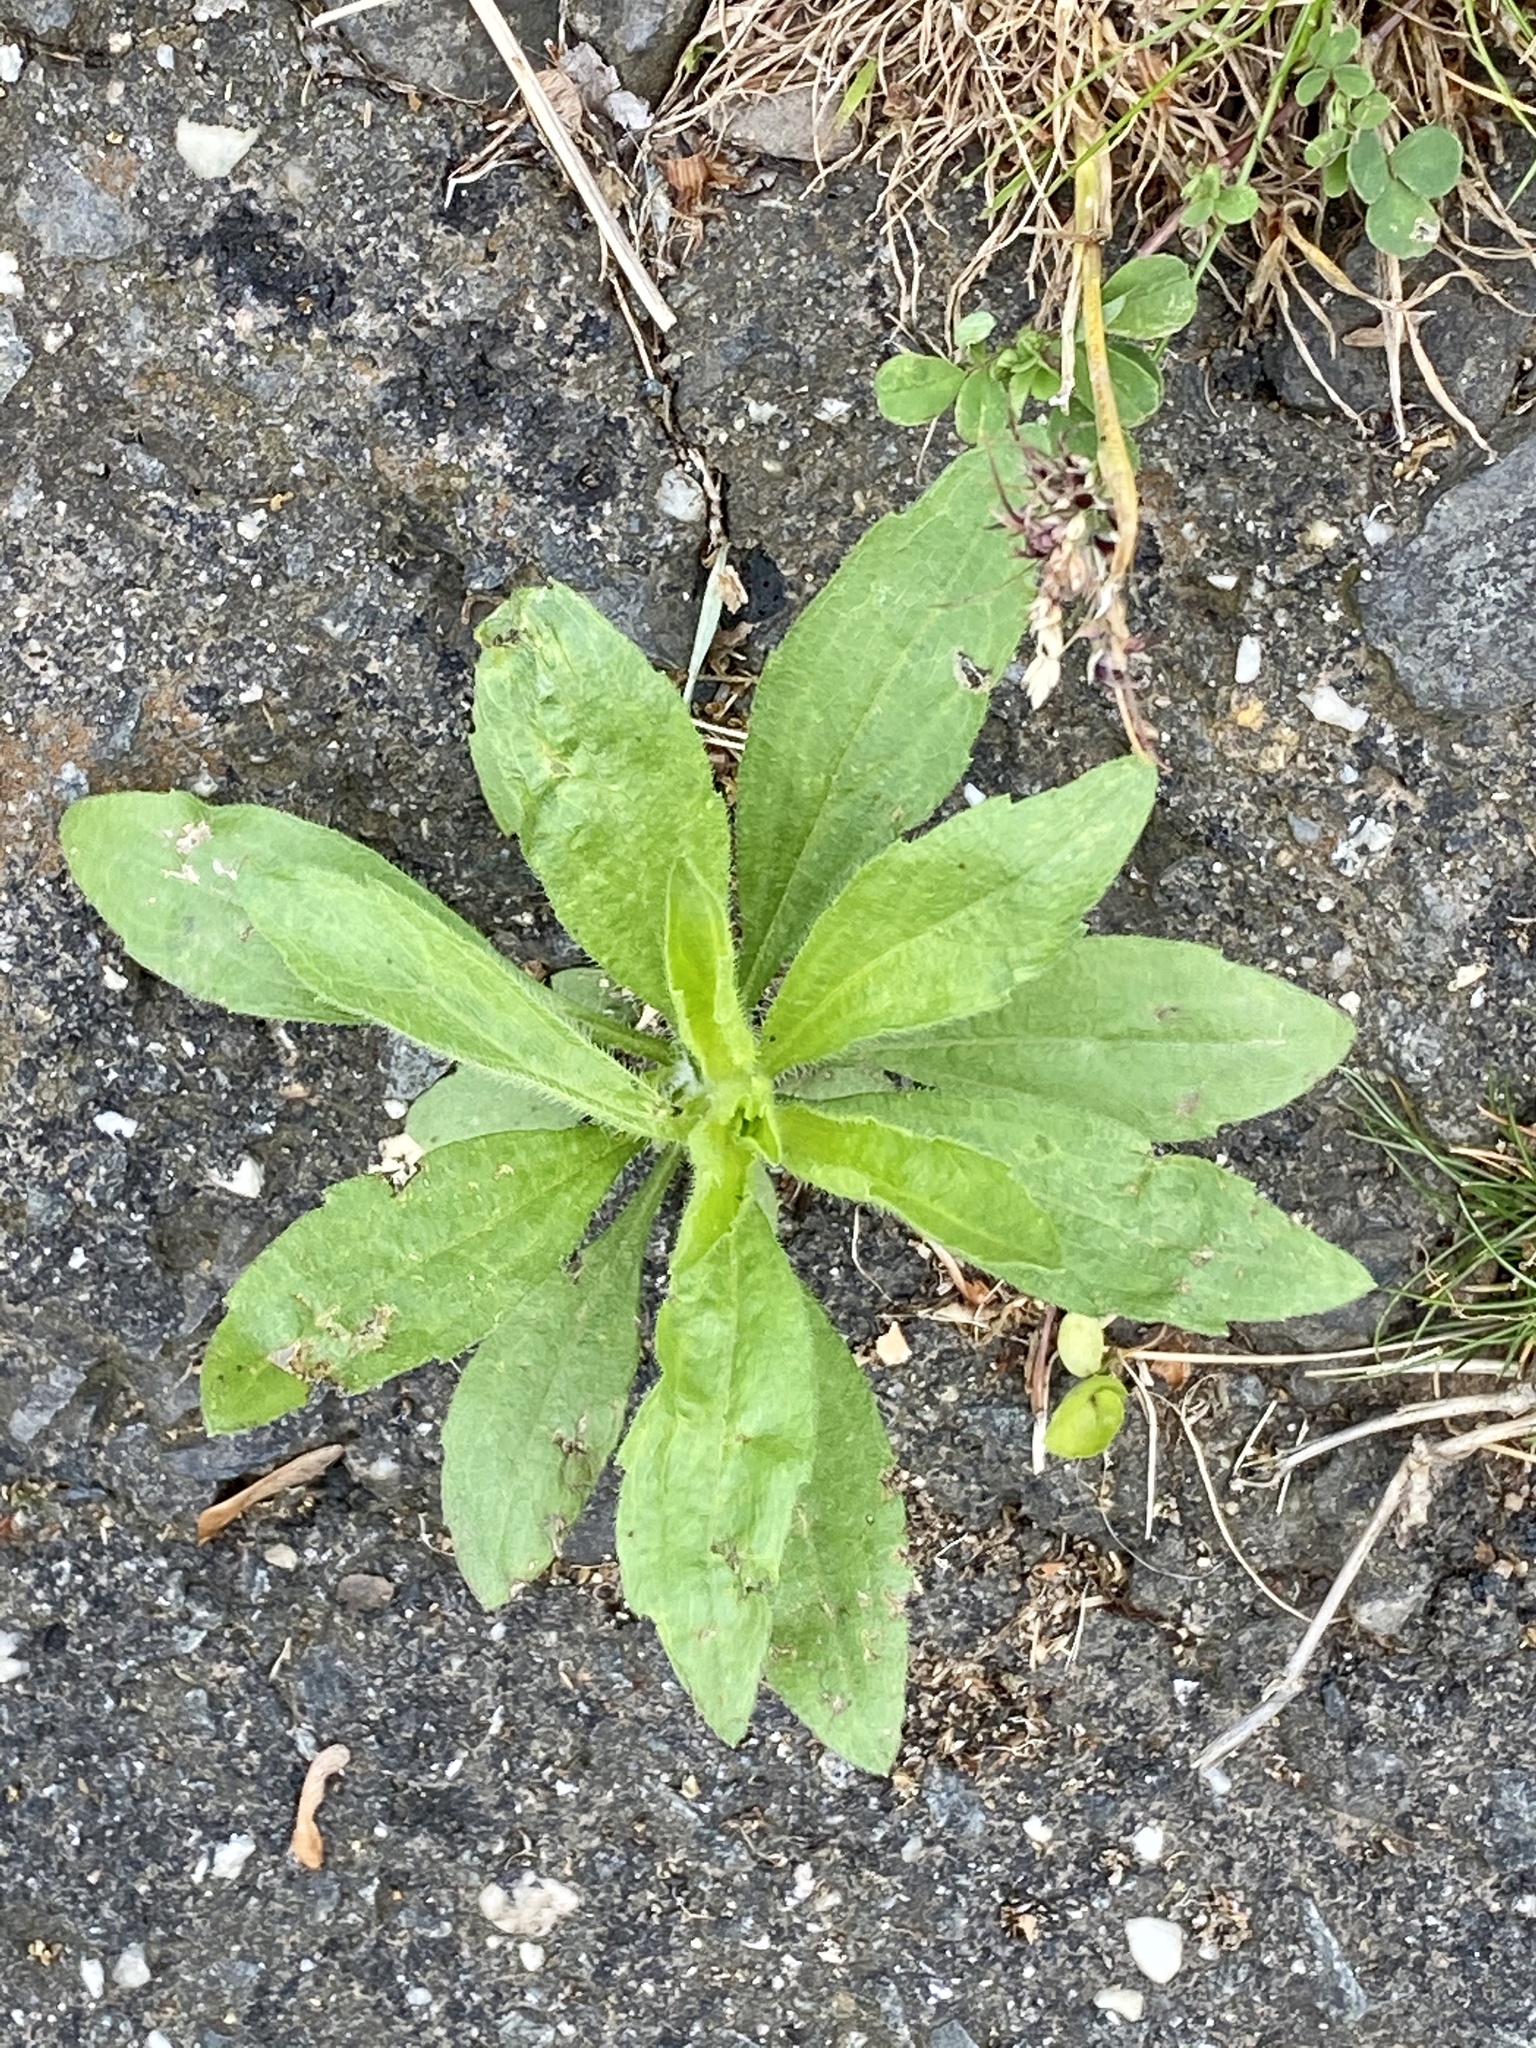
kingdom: Plantae
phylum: Tracheophyta
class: Magnoliopsida
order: Asterales
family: Asteraceae
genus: Erigeron
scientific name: Erigeron canadensis
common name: Canadian fleabane
